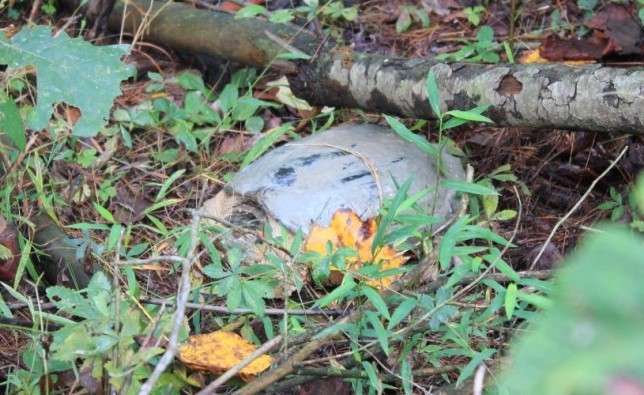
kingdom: Animalia
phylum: Chordata
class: Testudines
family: Chelydridae
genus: Chelydra
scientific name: Chelydra serpentina
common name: Common snapping turtle
